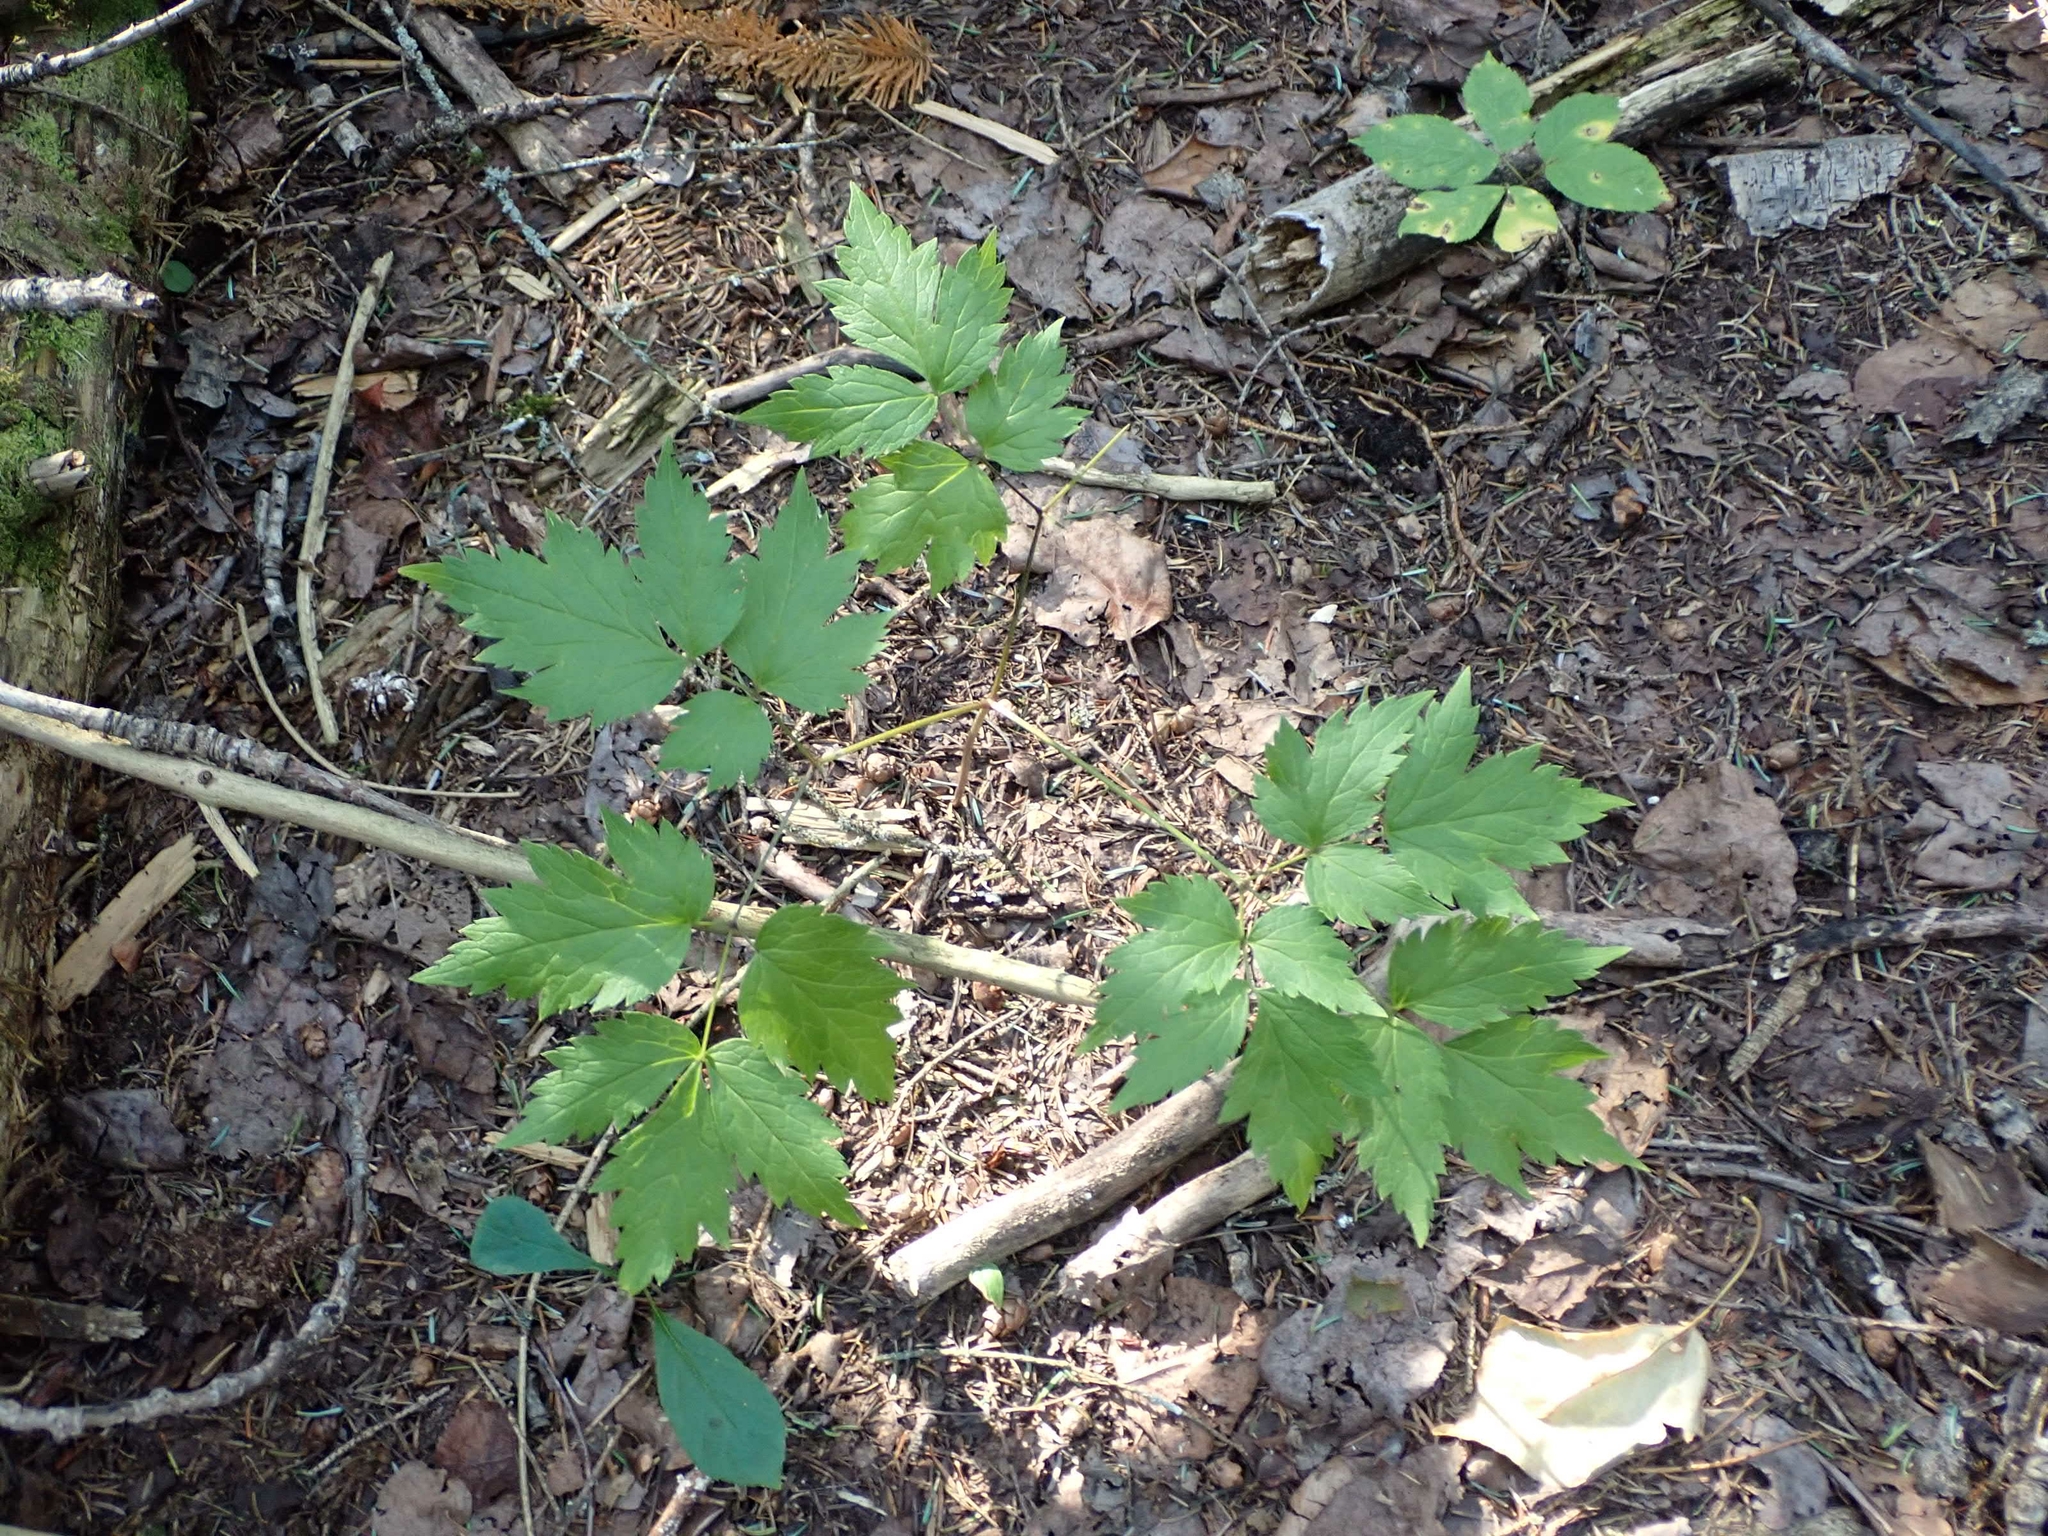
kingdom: Plantae
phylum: Tracheophyta
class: Magnoliopsida
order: Ranunculales
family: Ranunculaceae
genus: Actaea
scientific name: Actaea rubra
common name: Red baneberry
